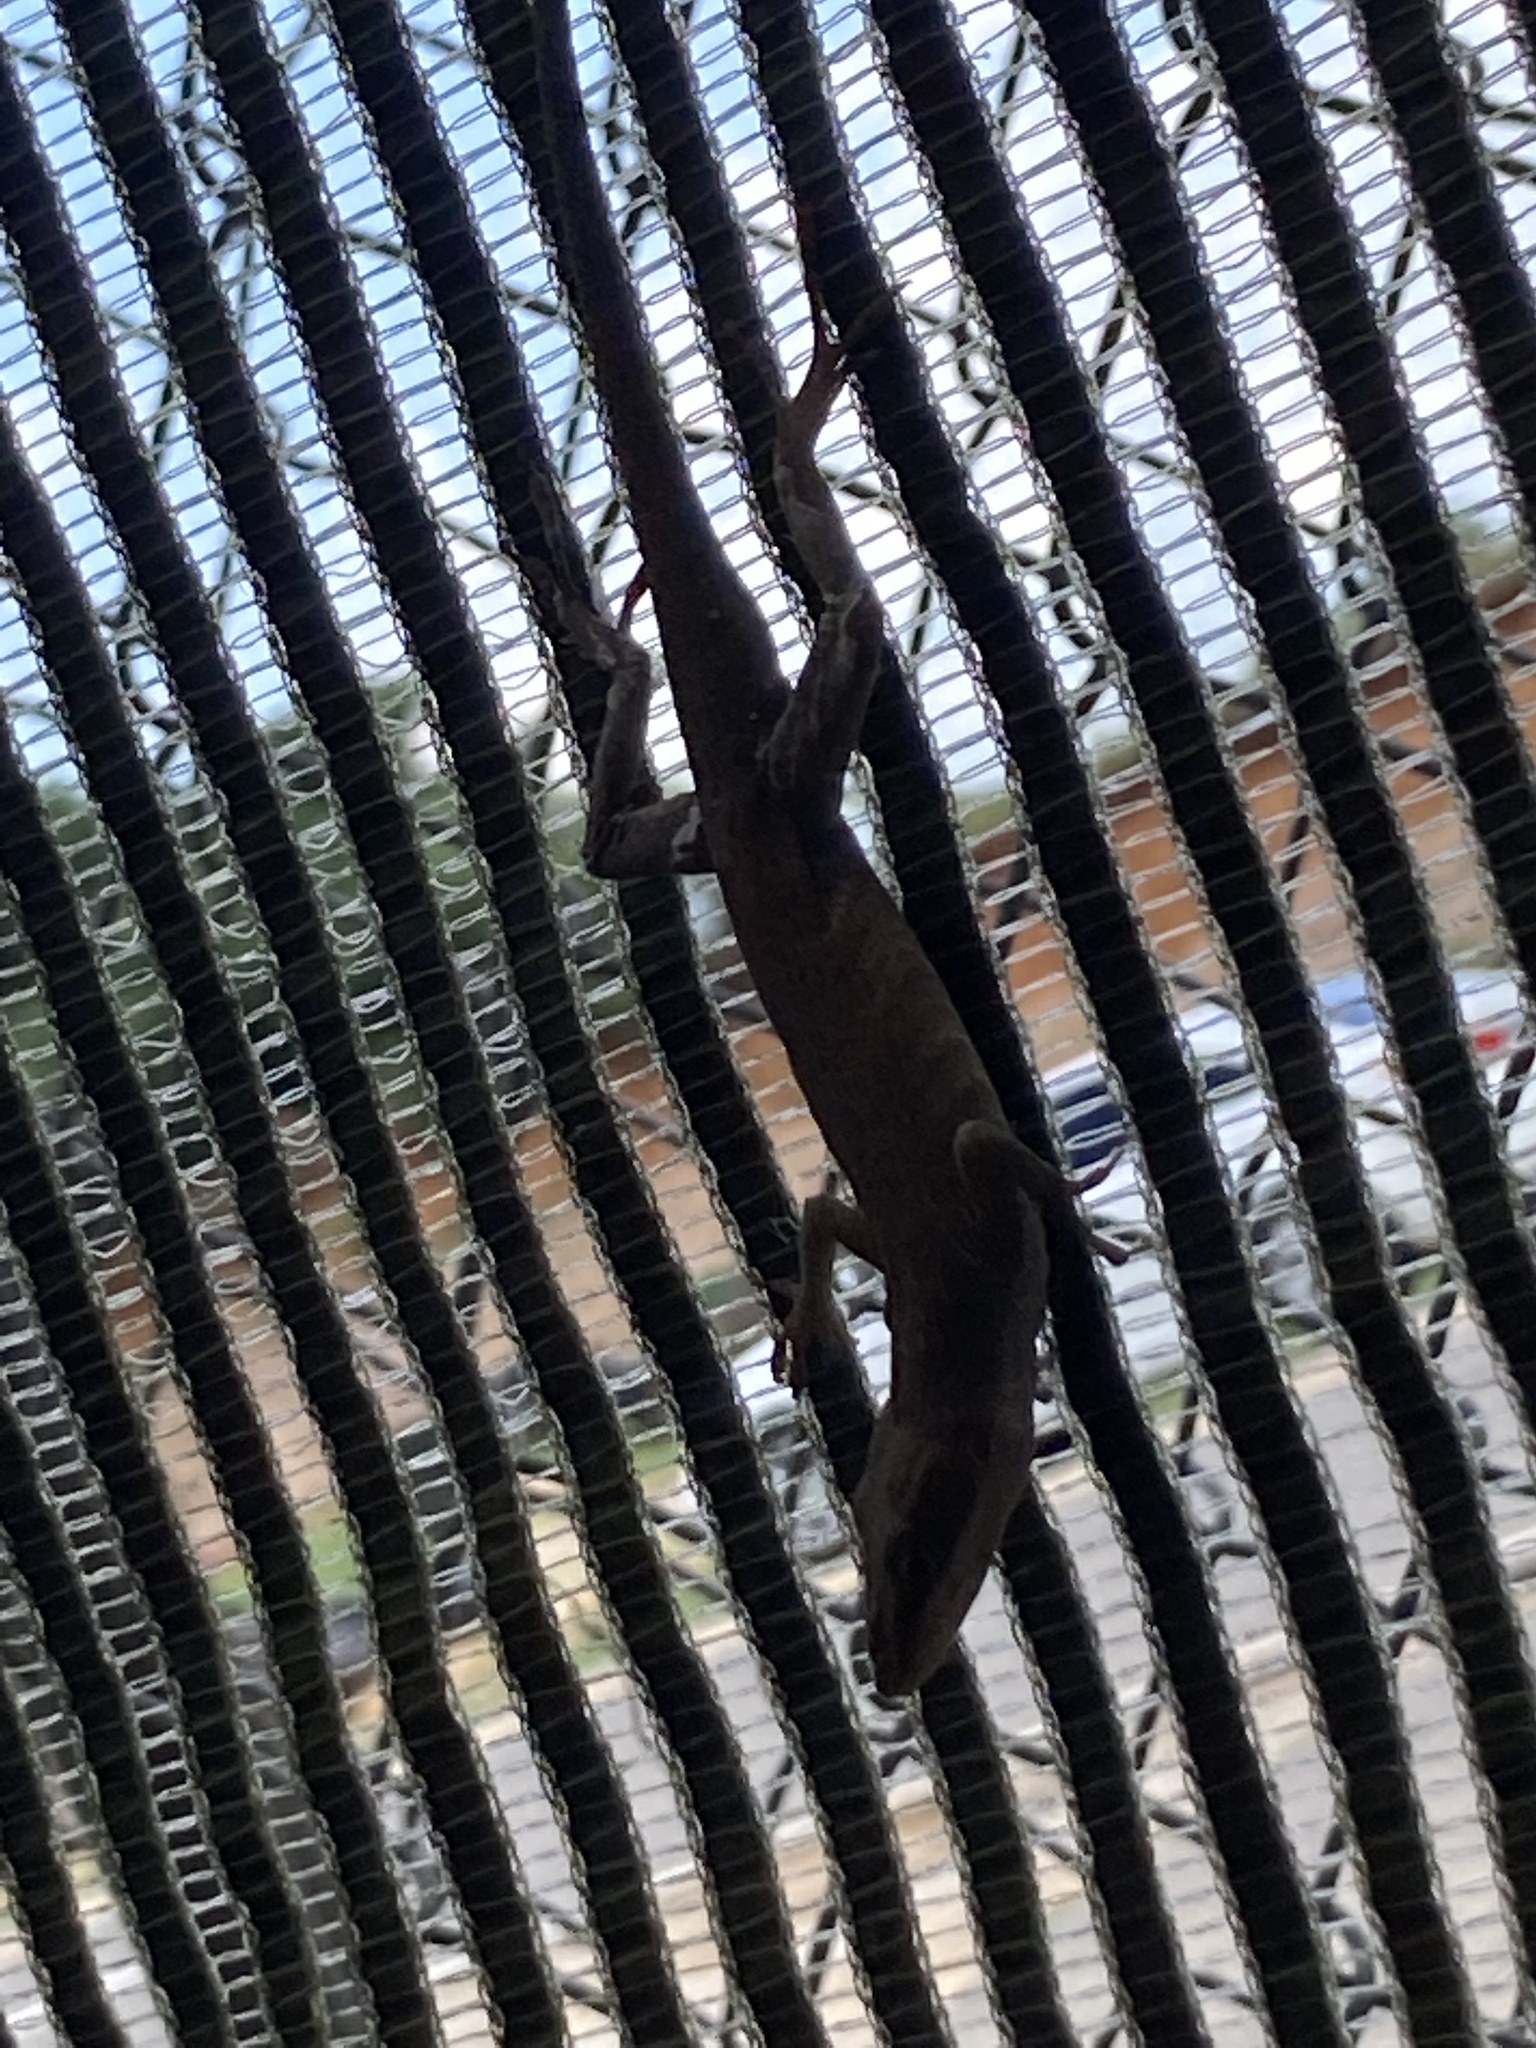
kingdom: Animalia
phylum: Chordata
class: Squamata
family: Dactyloidae
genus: Anolis
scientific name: Anolis carolinensis
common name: Green anole
